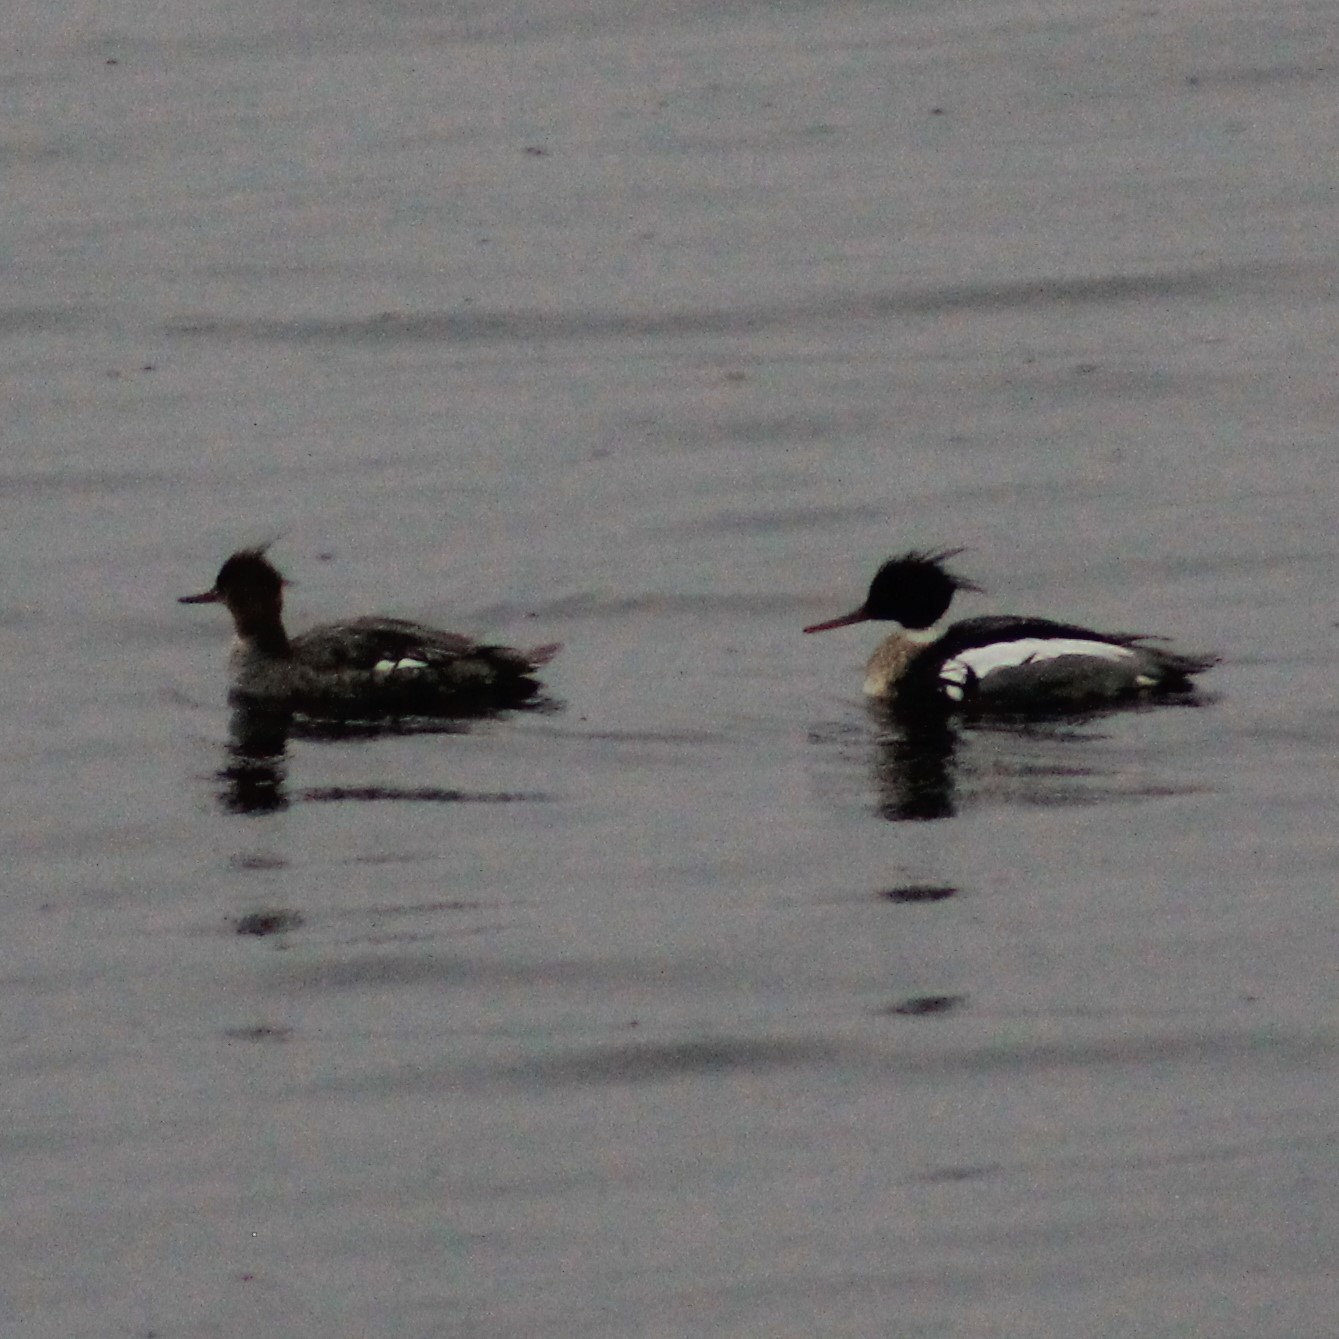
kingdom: Animalia
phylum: Chordata
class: Aves
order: Anseriformes
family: Anatidae
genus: Mergus
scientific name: Mergus serrator
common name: Red-breasted merganser
